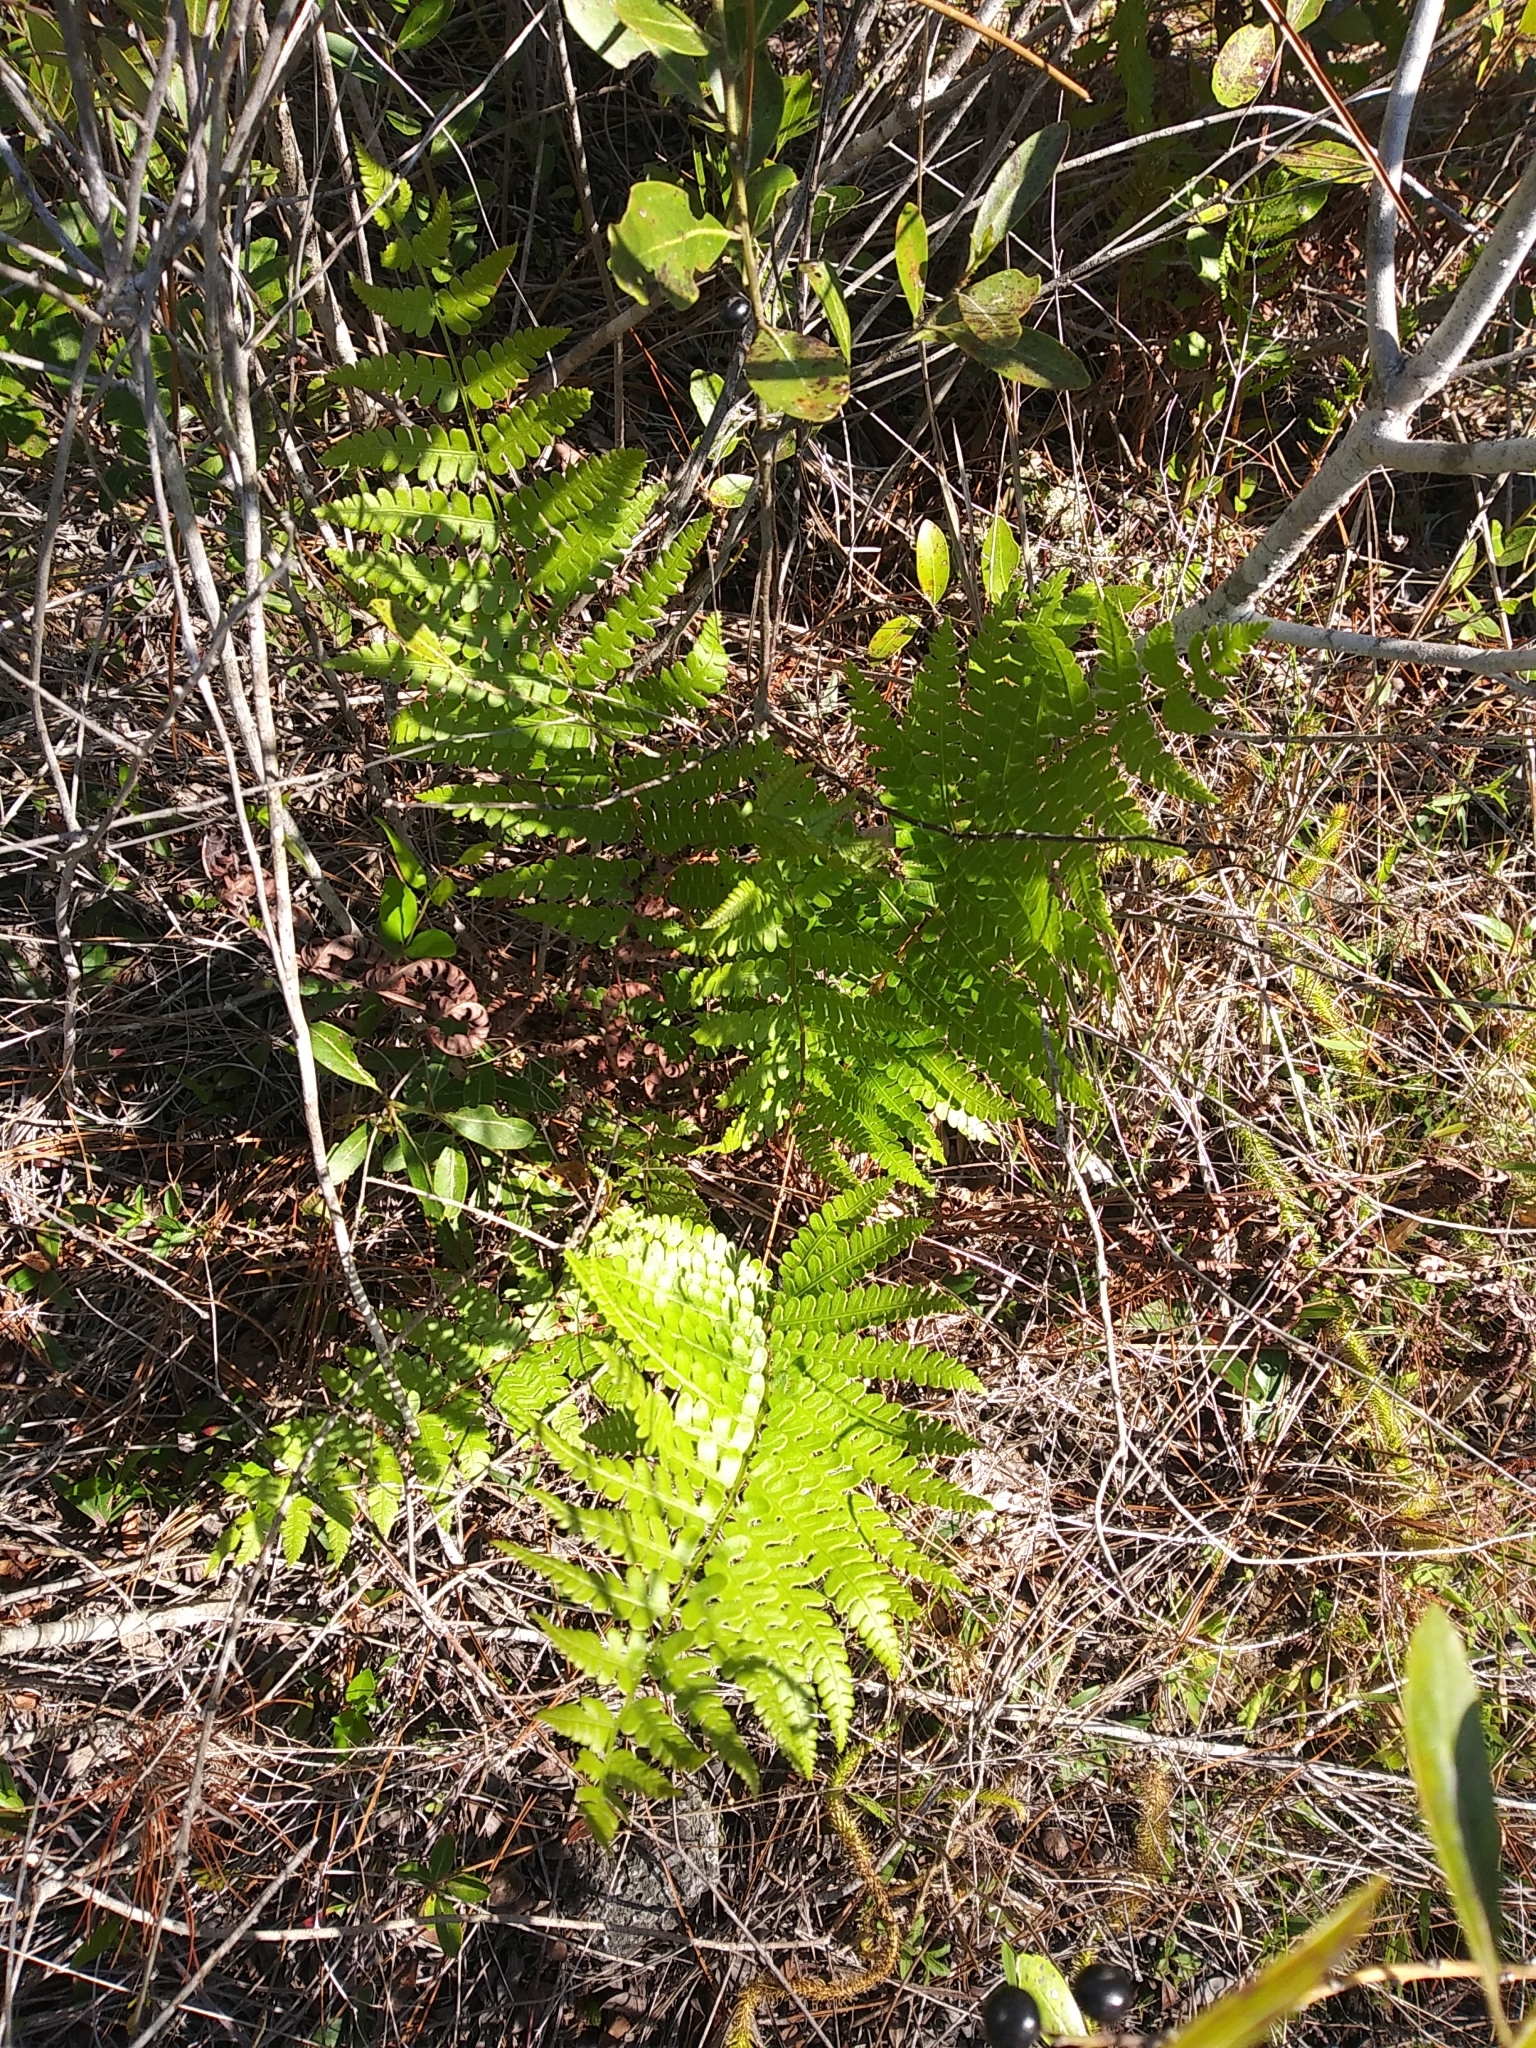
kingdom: Plantae
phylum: Tracheophyta
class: Polypodiopsida
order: Polypodiales
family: Blechnaceae
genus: Anchistea
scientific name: Anchistea virginica
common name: Virginia chain fern
